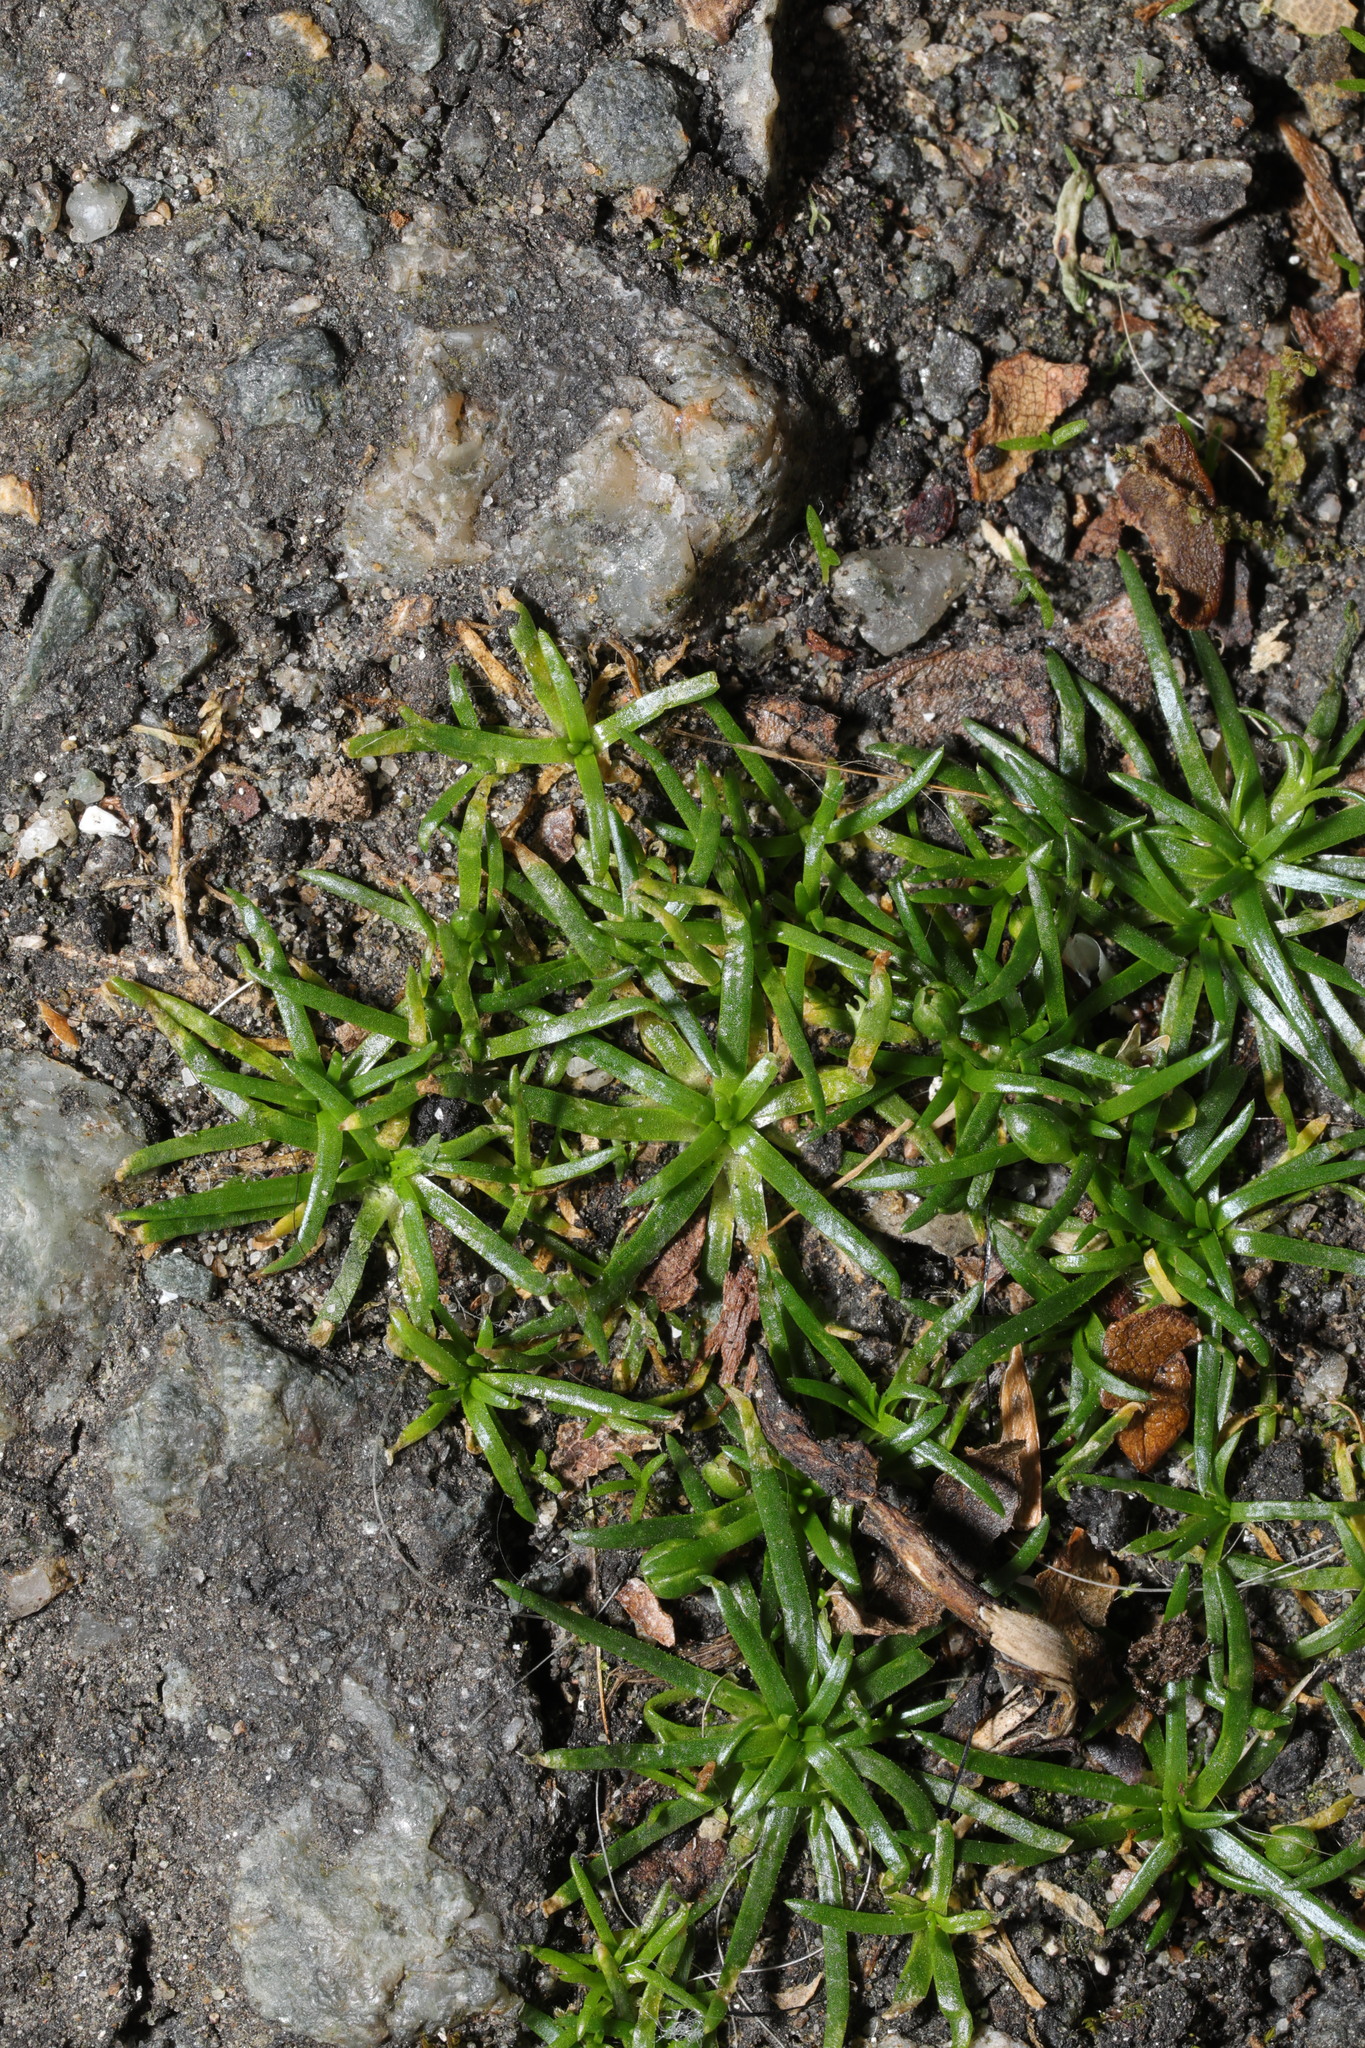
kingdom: Plantae
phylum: Tracheophyta
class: Magnoliopsida
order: Caryophyllales
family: Caryophyllaceae
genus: Sagina
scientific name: Sagina procumbens
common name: Procumbent pearlwort
